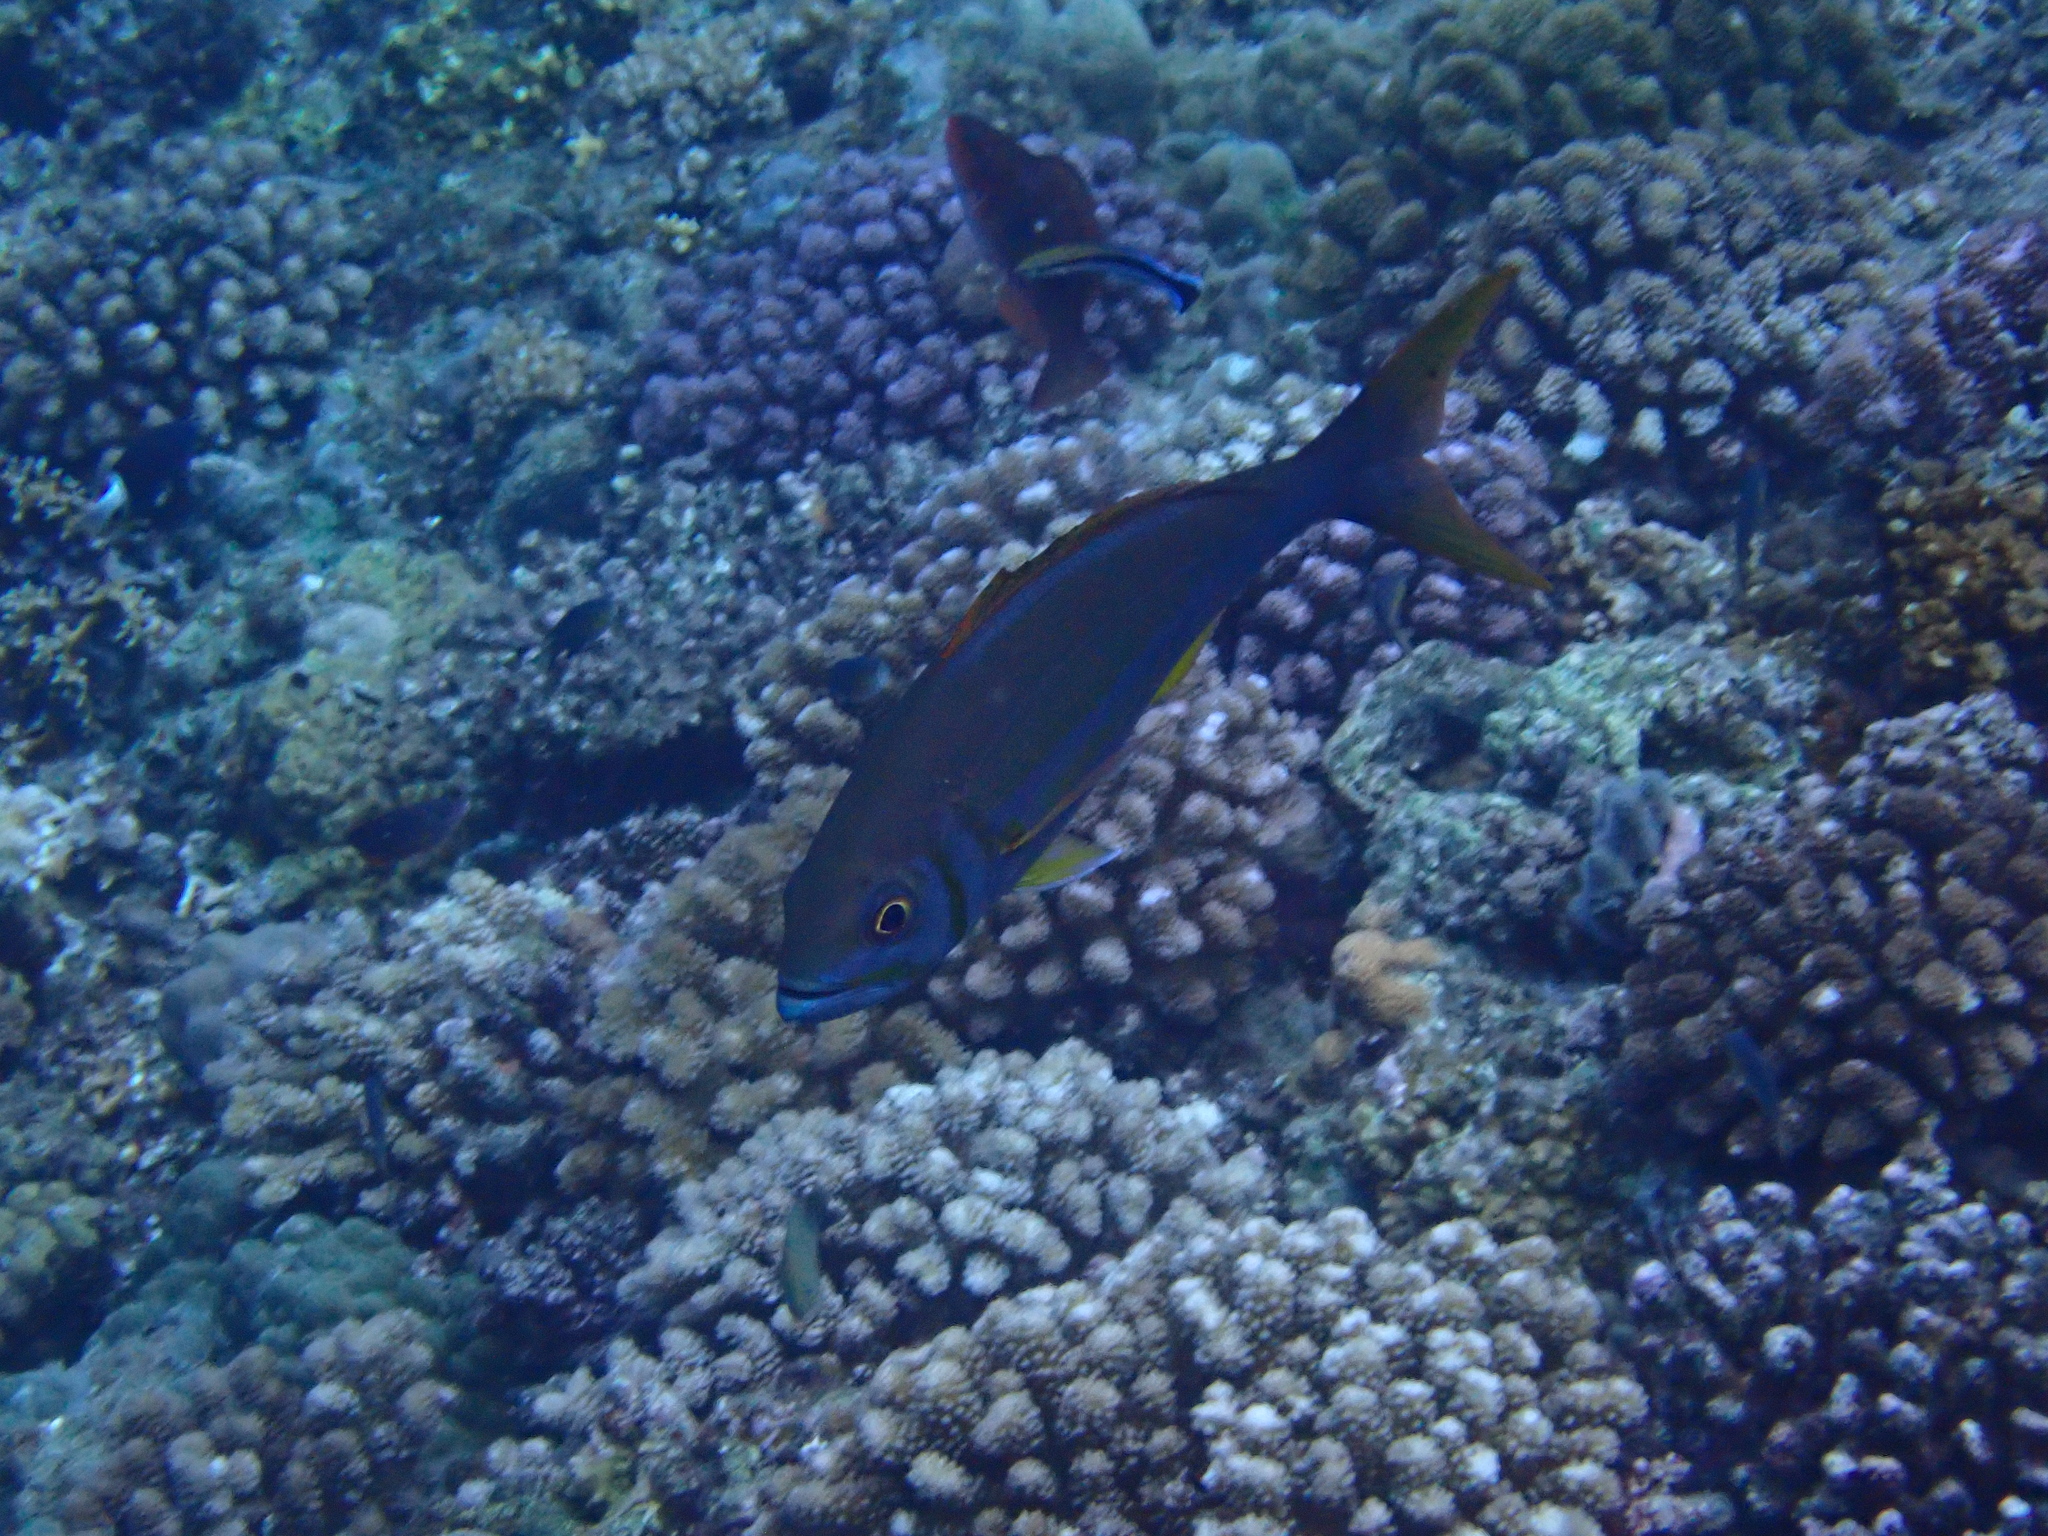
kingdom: Animalia
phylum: Chordata
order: Perciformes
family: Lutjanidae
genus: Aphareus
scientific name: Aphareus furca
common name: Smalltooth jobfish
